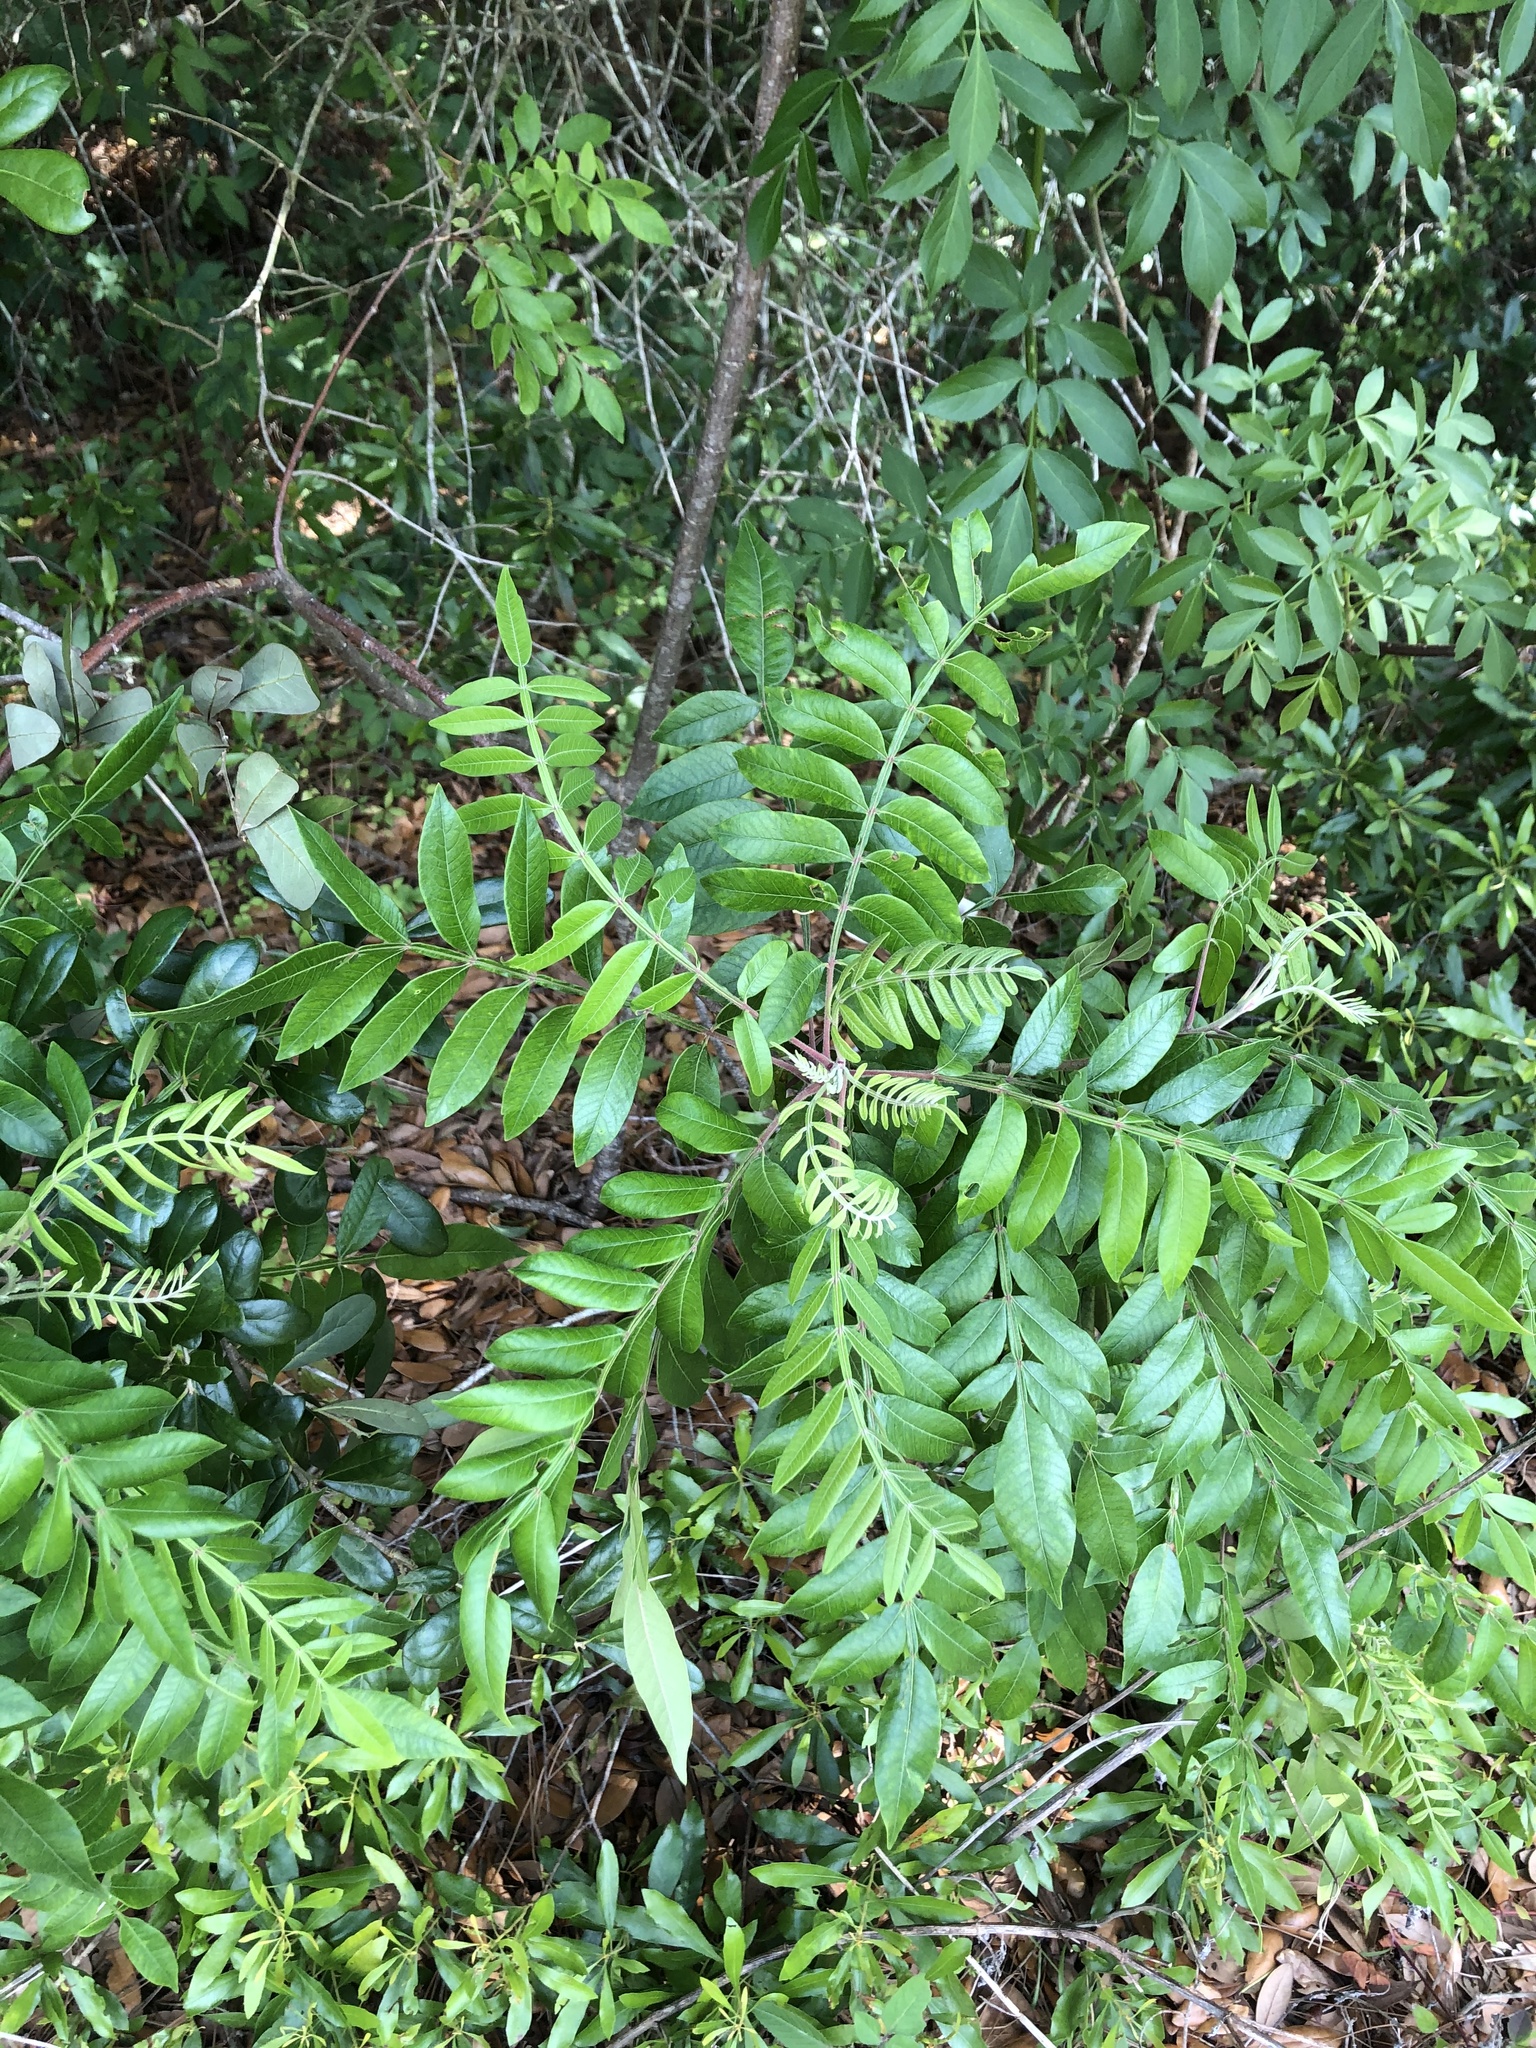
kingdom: Plantae
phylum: Tracheophyta
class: Magnoliopsida
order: Sapindales
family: Anacardiaceae
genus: Rhus
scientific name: Rhus copallina
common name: Shining sumac
